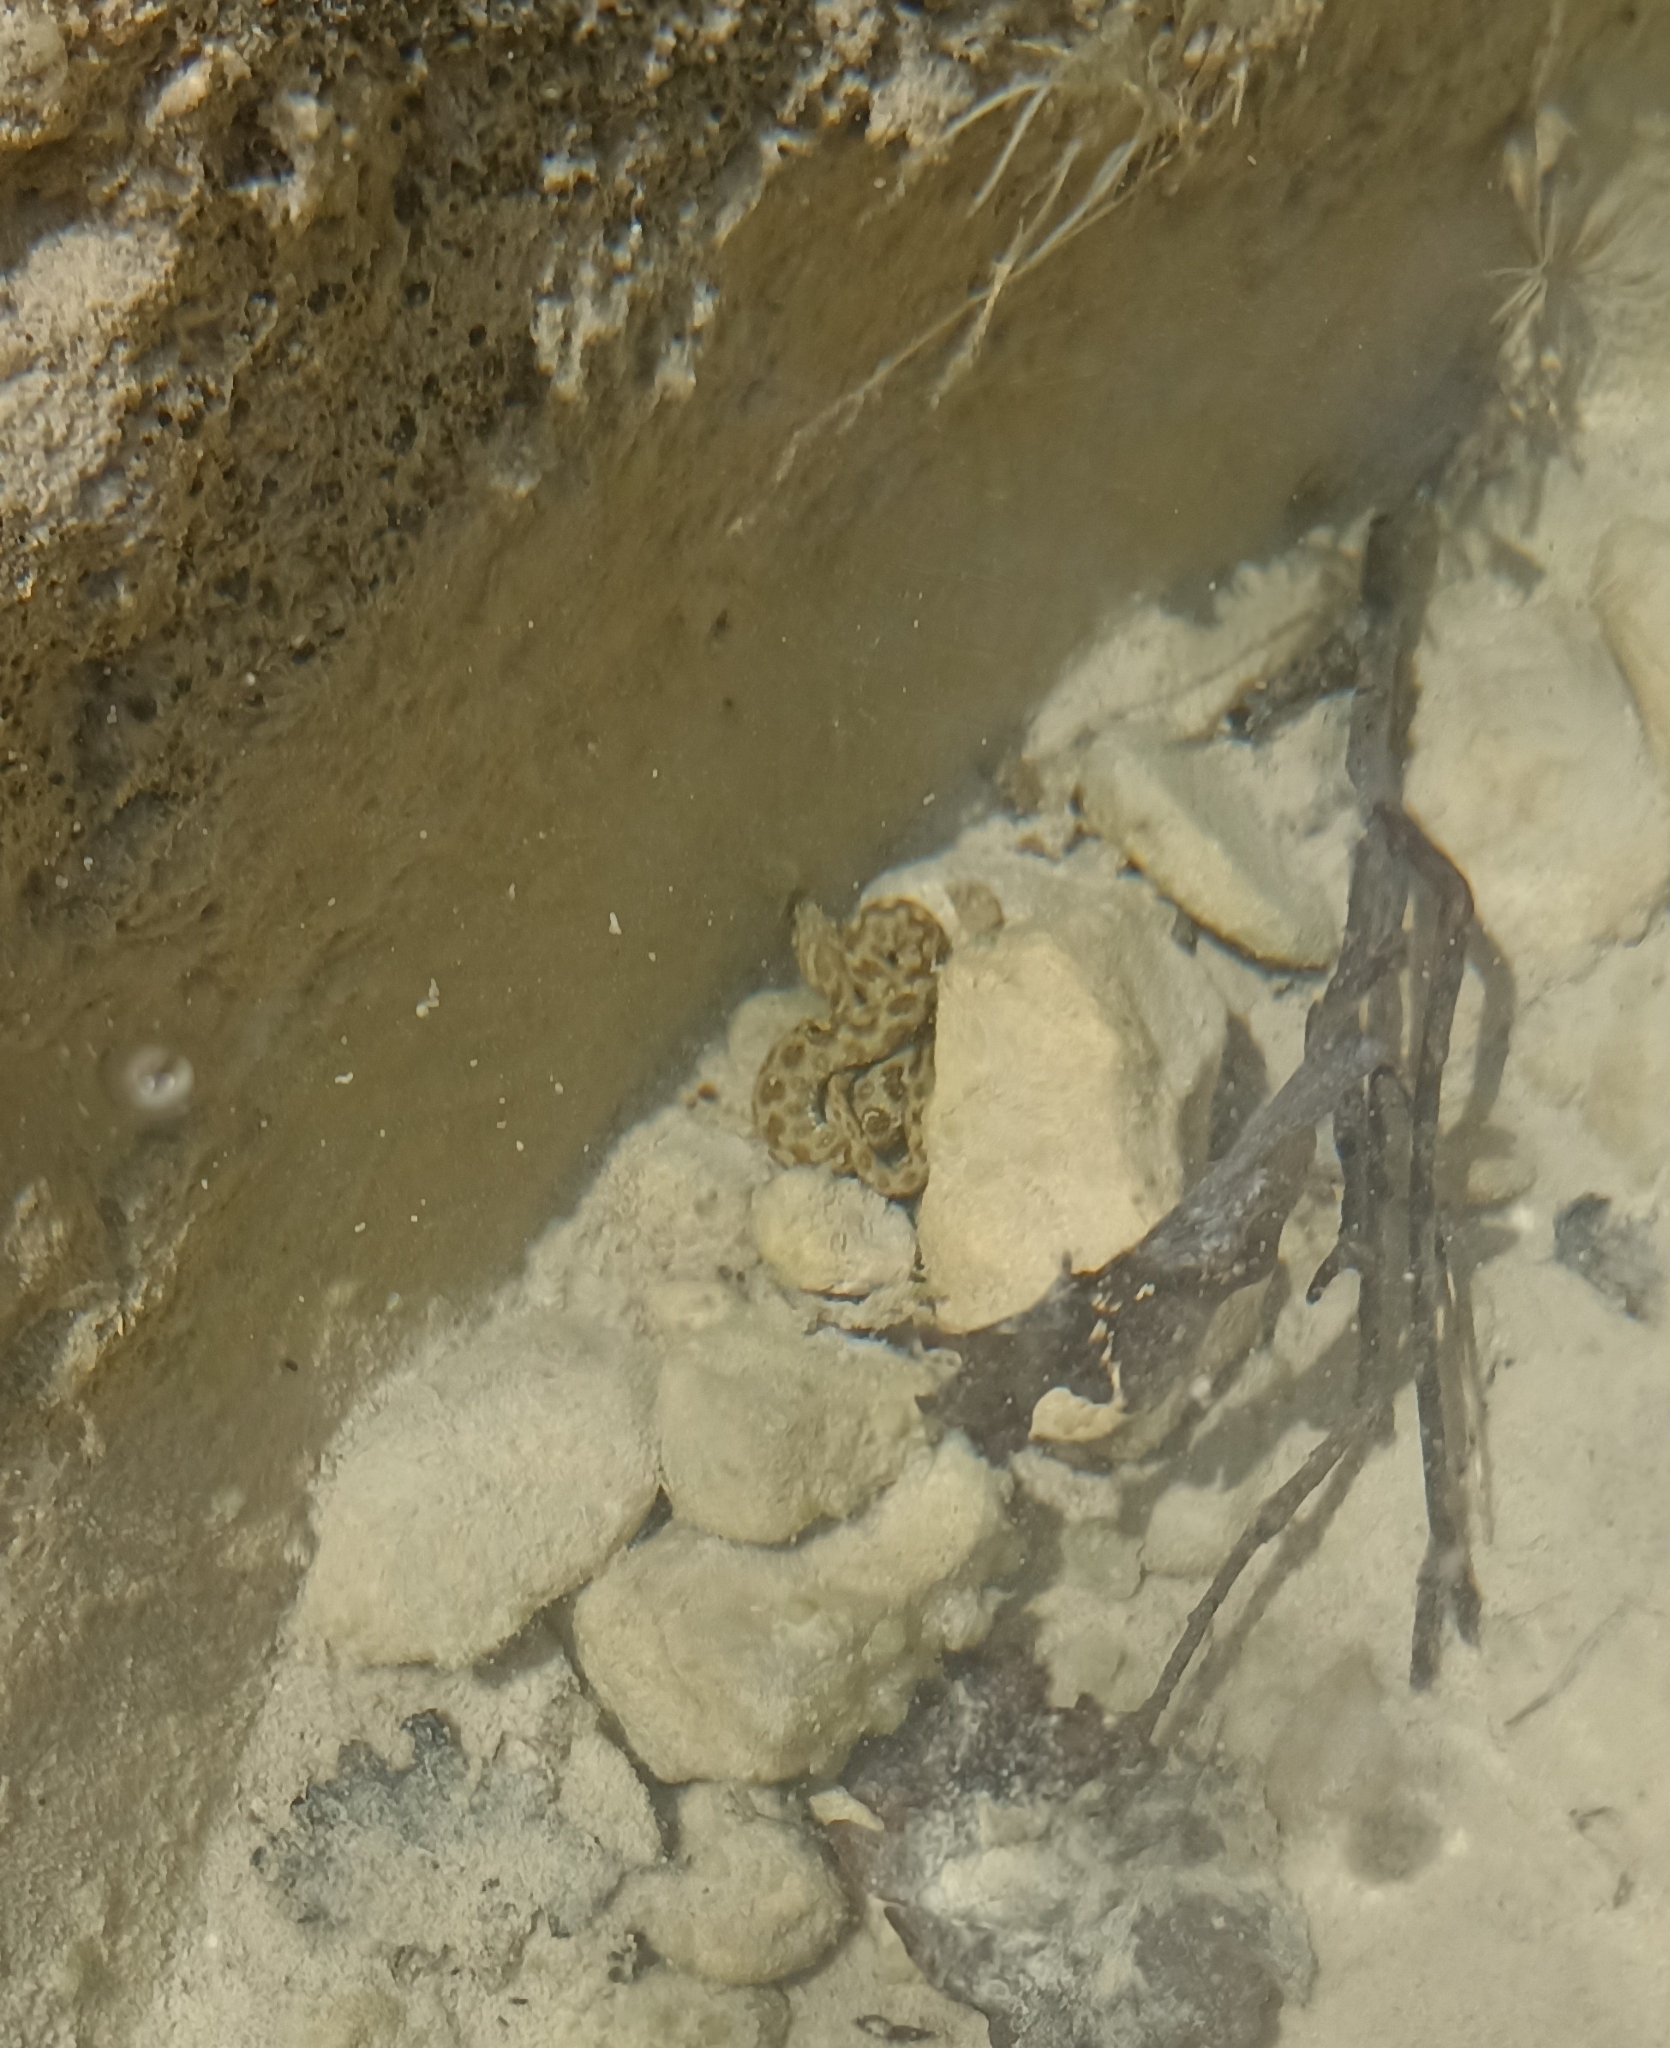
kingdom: Animalia
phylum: Chordata
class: Squamata
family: Colubridae
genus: Natrix
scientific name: Natrix maura
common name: Viperine water snake
